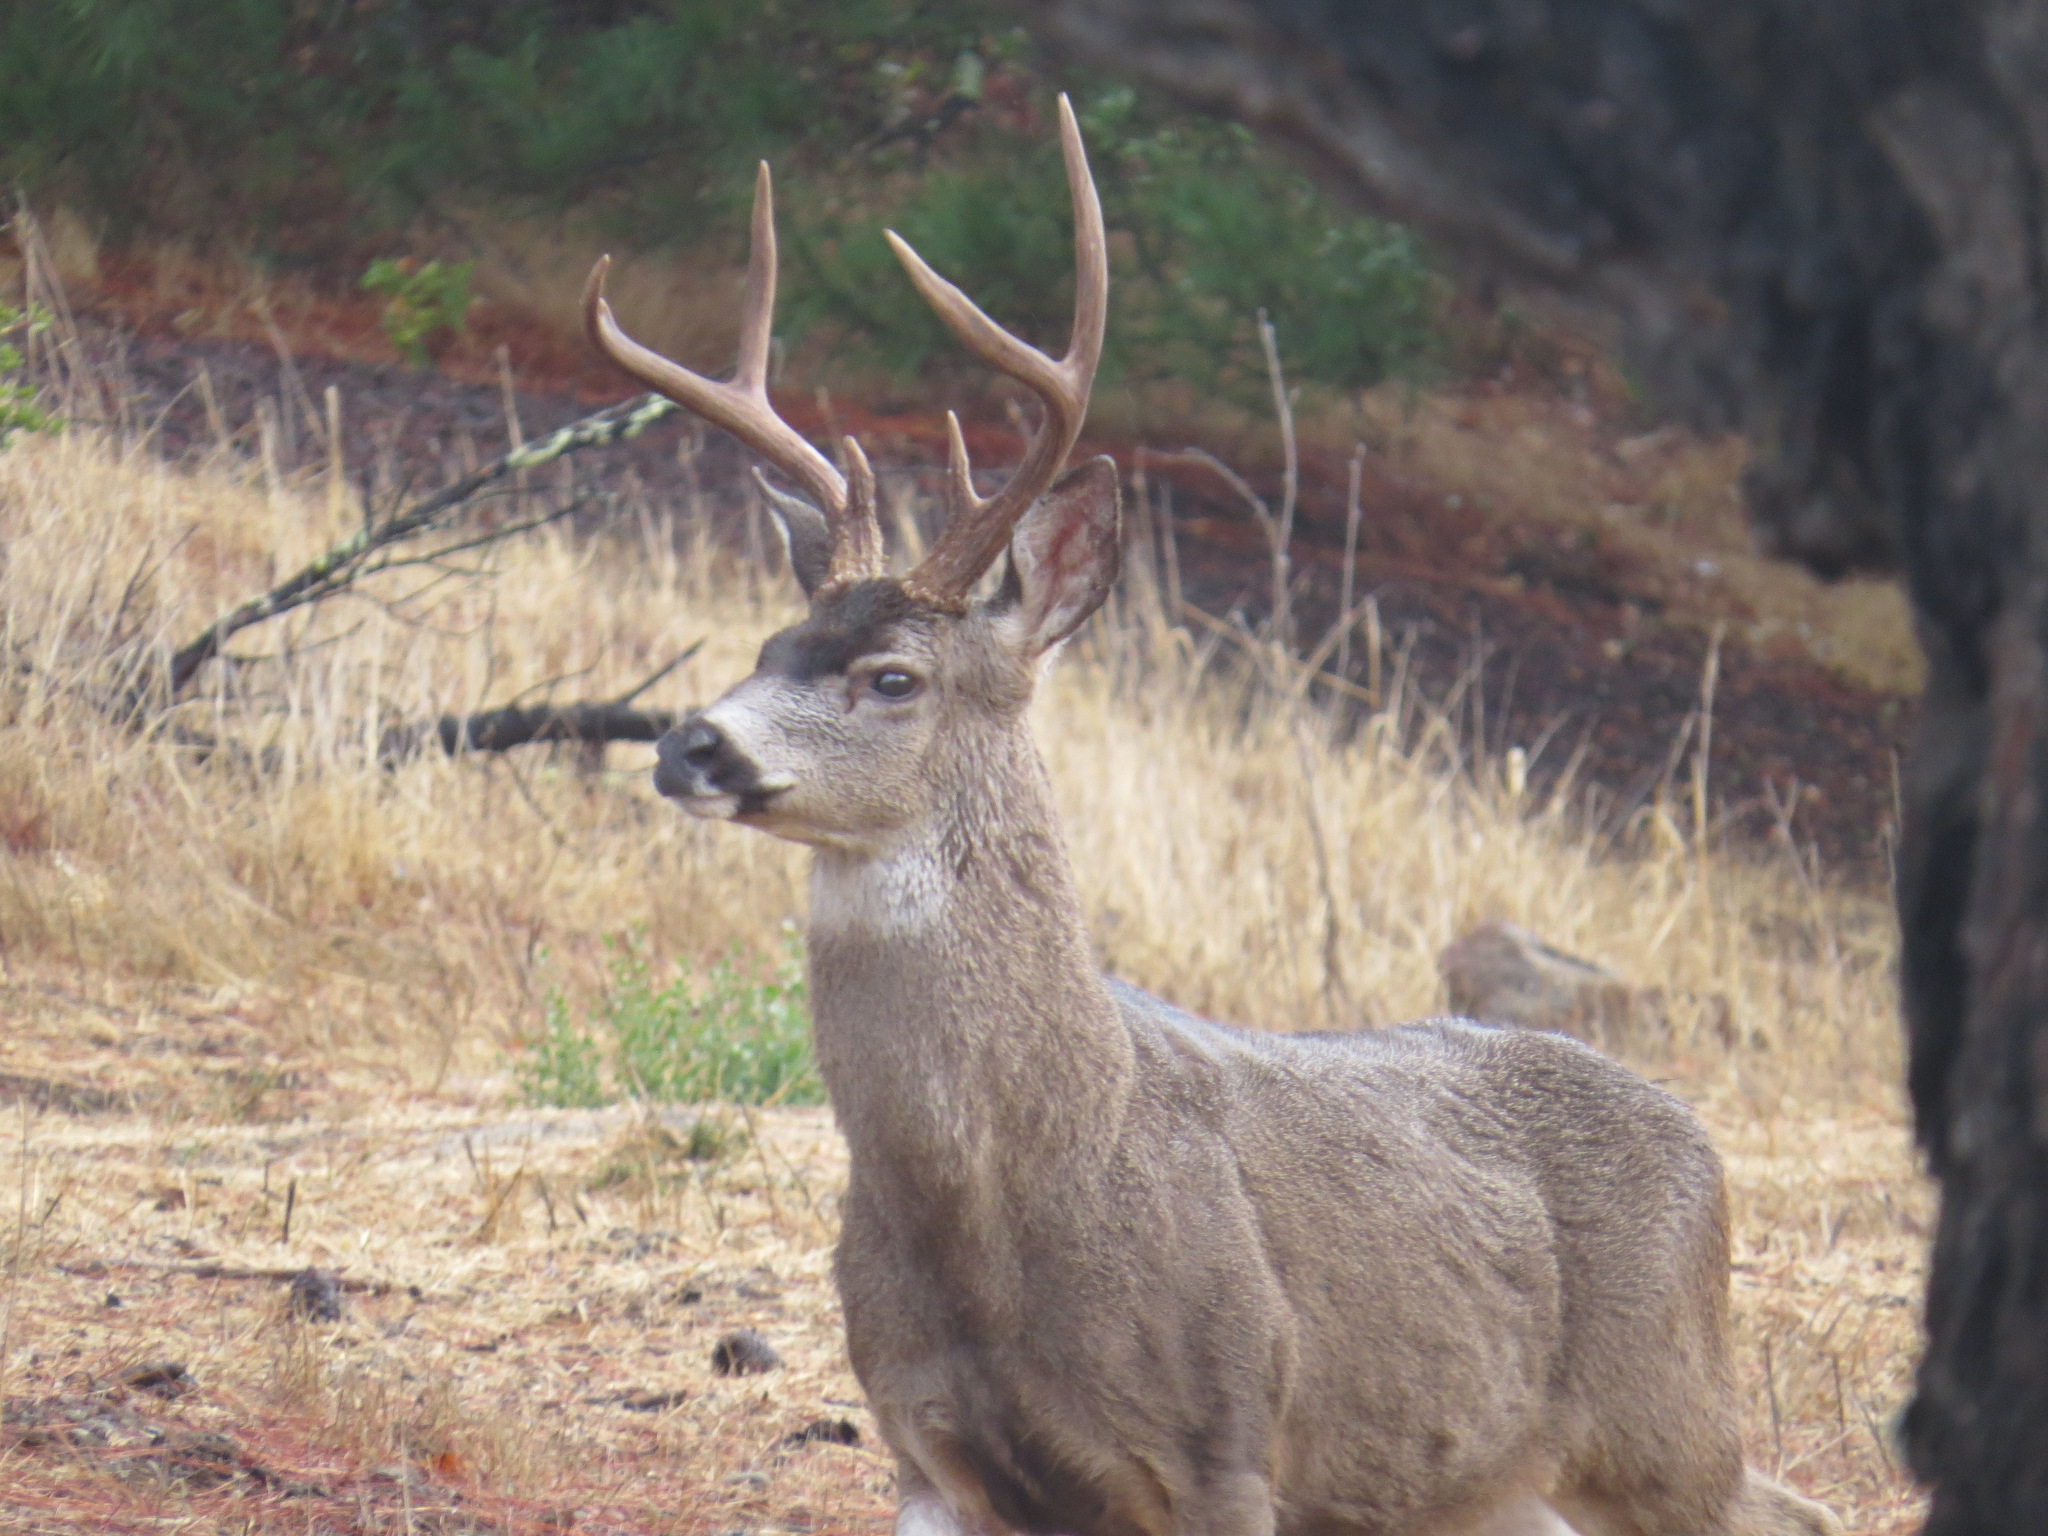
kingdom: Animalia
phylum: Chordata
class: Mammalia
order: Artiodactyla
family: Cervidae
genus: Odocoileus
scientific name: Odocoileus hemionus
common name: Mule deer
